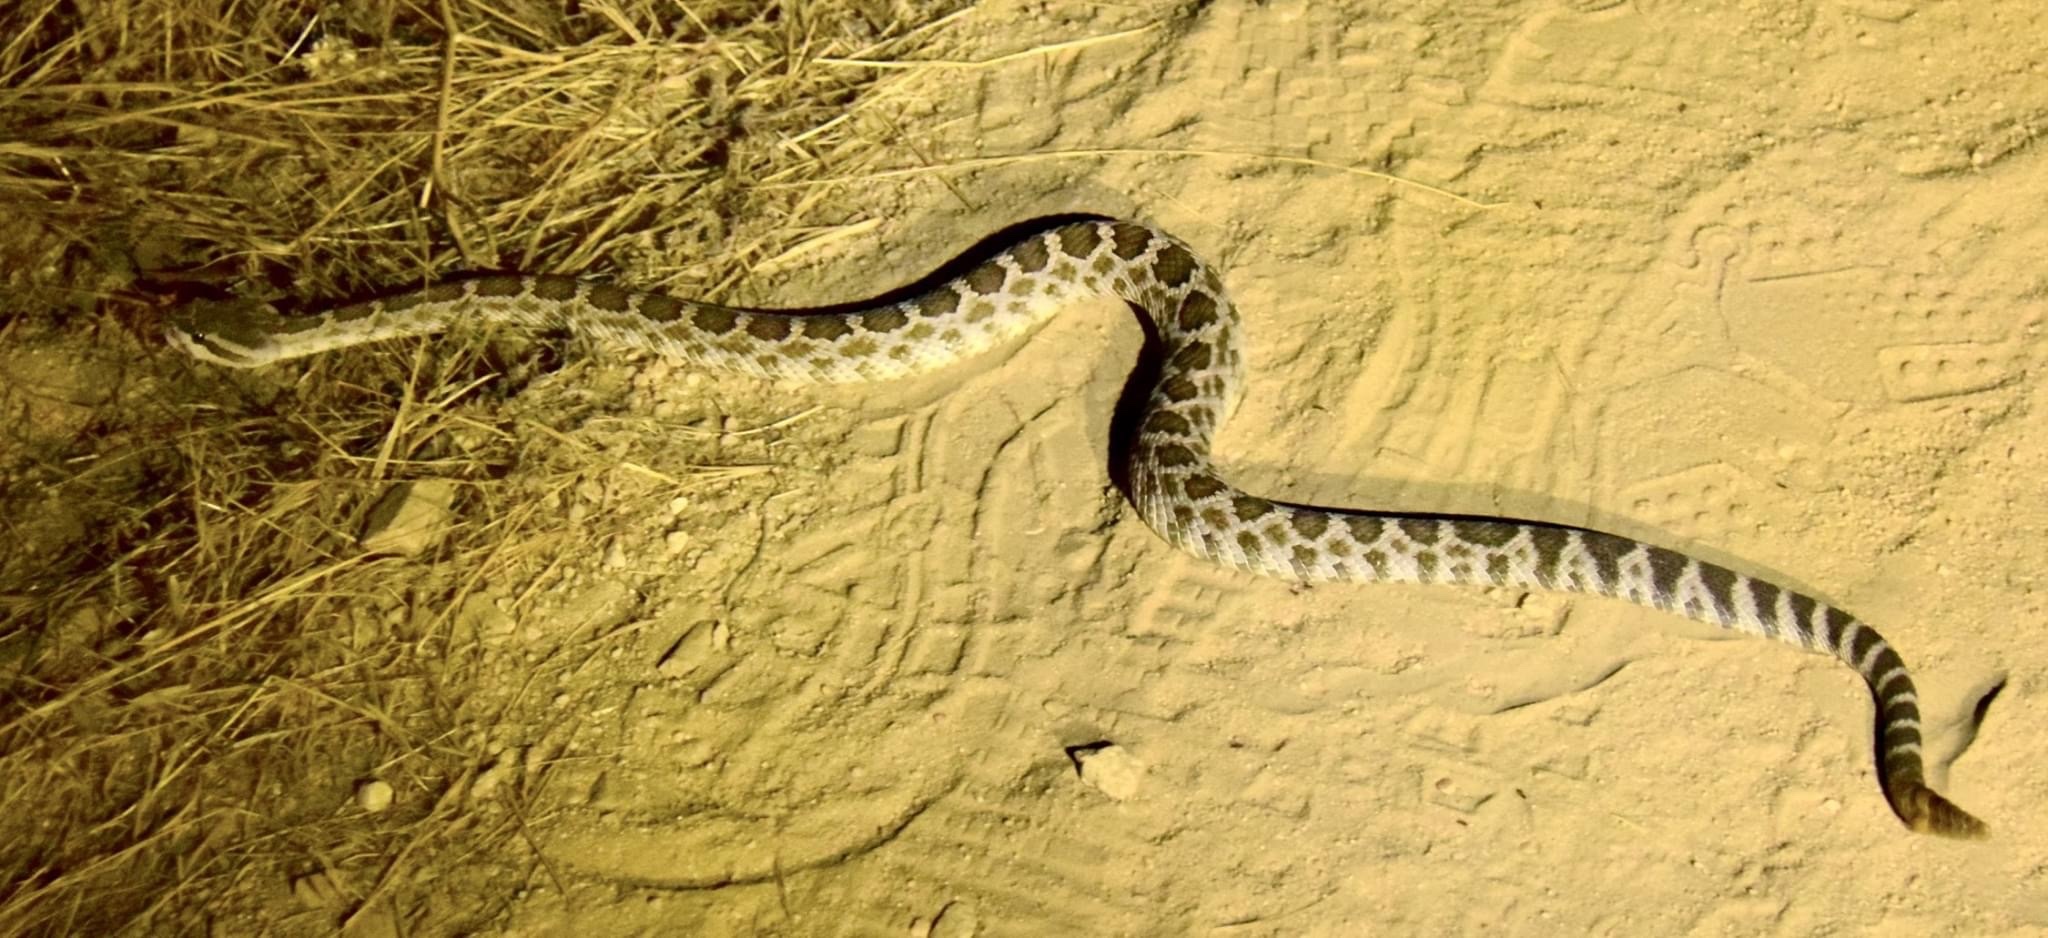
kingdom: Animalia
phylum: Chordata
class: Squamata
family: Viperidae
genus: Crotalus
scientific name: Crotalus oreganus
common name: Abyssus
